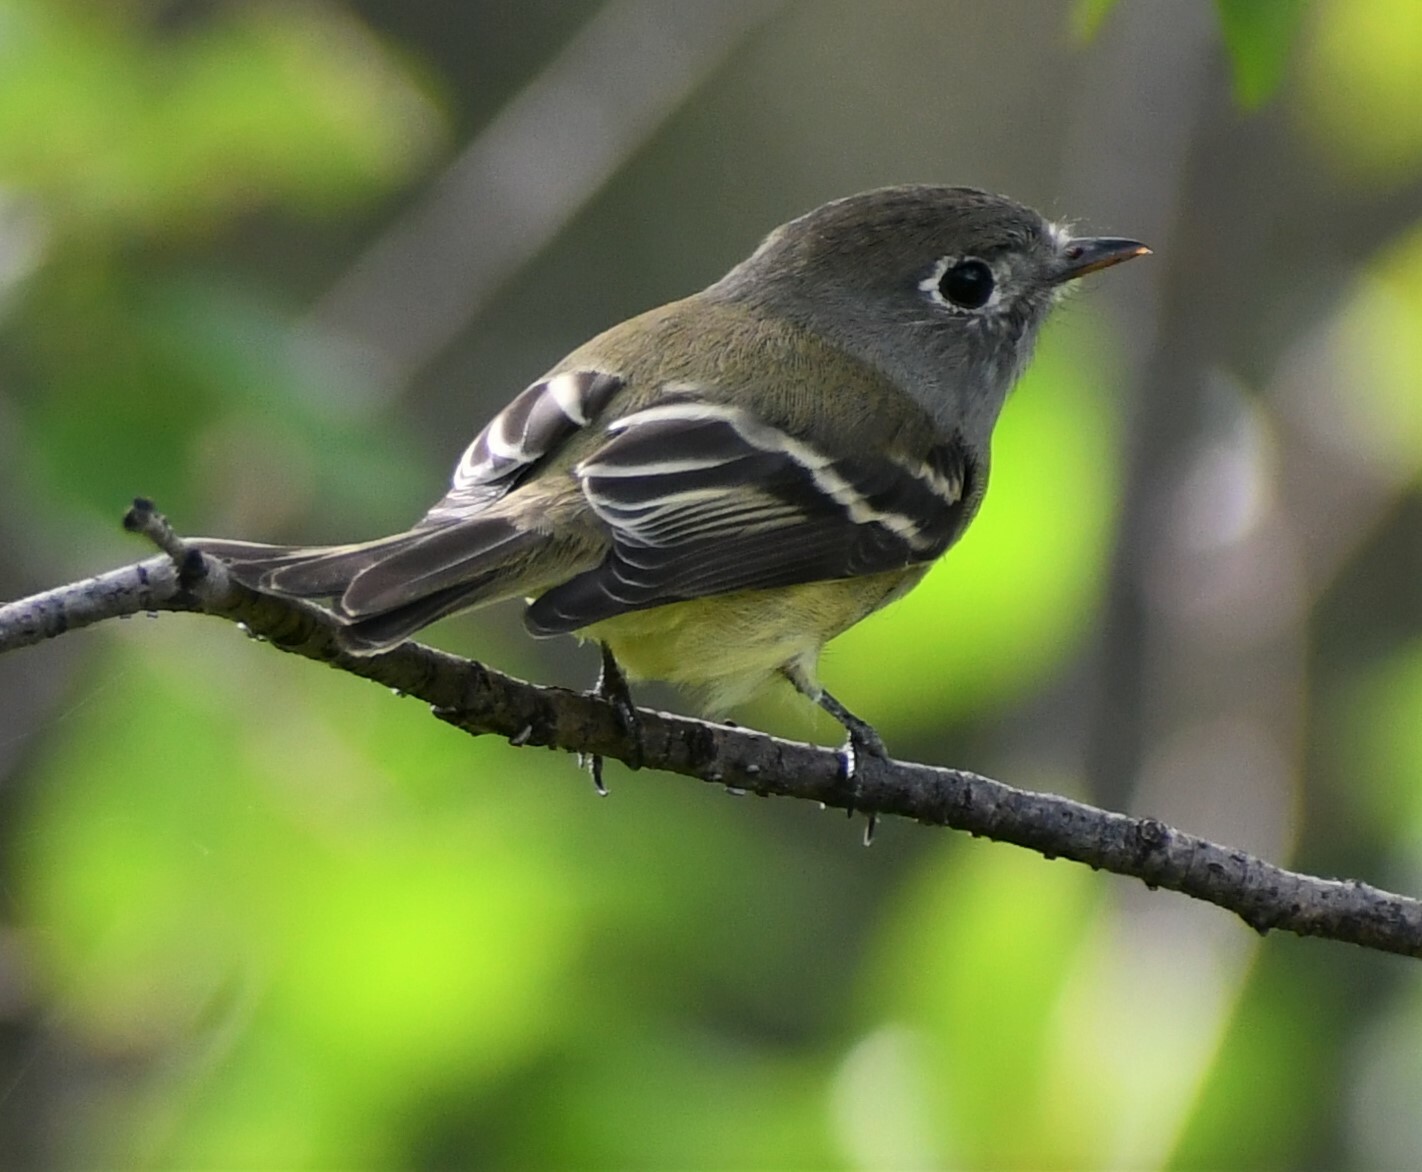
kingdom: Animalia
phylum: Chordata
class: Aves
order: Passeriformes
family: Tyrannidae
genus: Empidonax
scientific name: Empidonax hammondii
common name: Hammond's flycatcher
